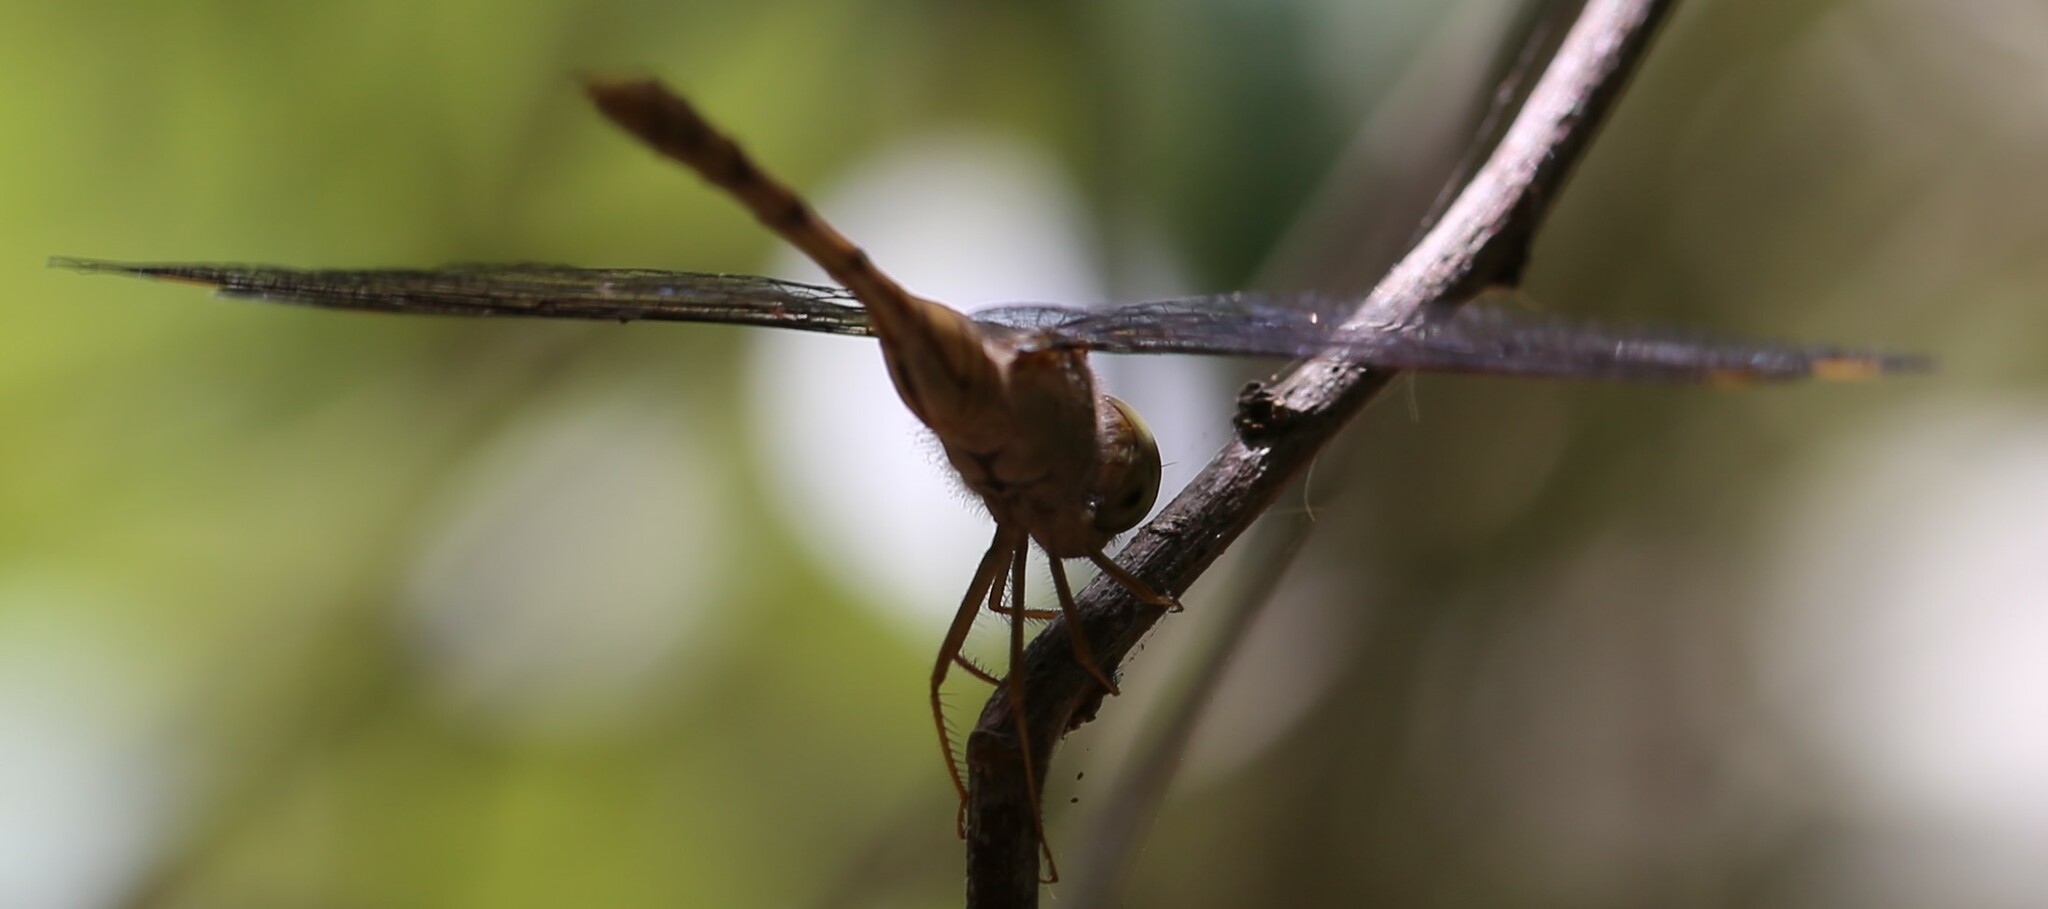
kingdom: Animalia
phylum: Arthropoda
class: Insecta
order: Odonata
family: Libellulidae
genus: Zyxomma
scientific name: Zyxomma elgneri
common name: Short-tailed duskdarter
